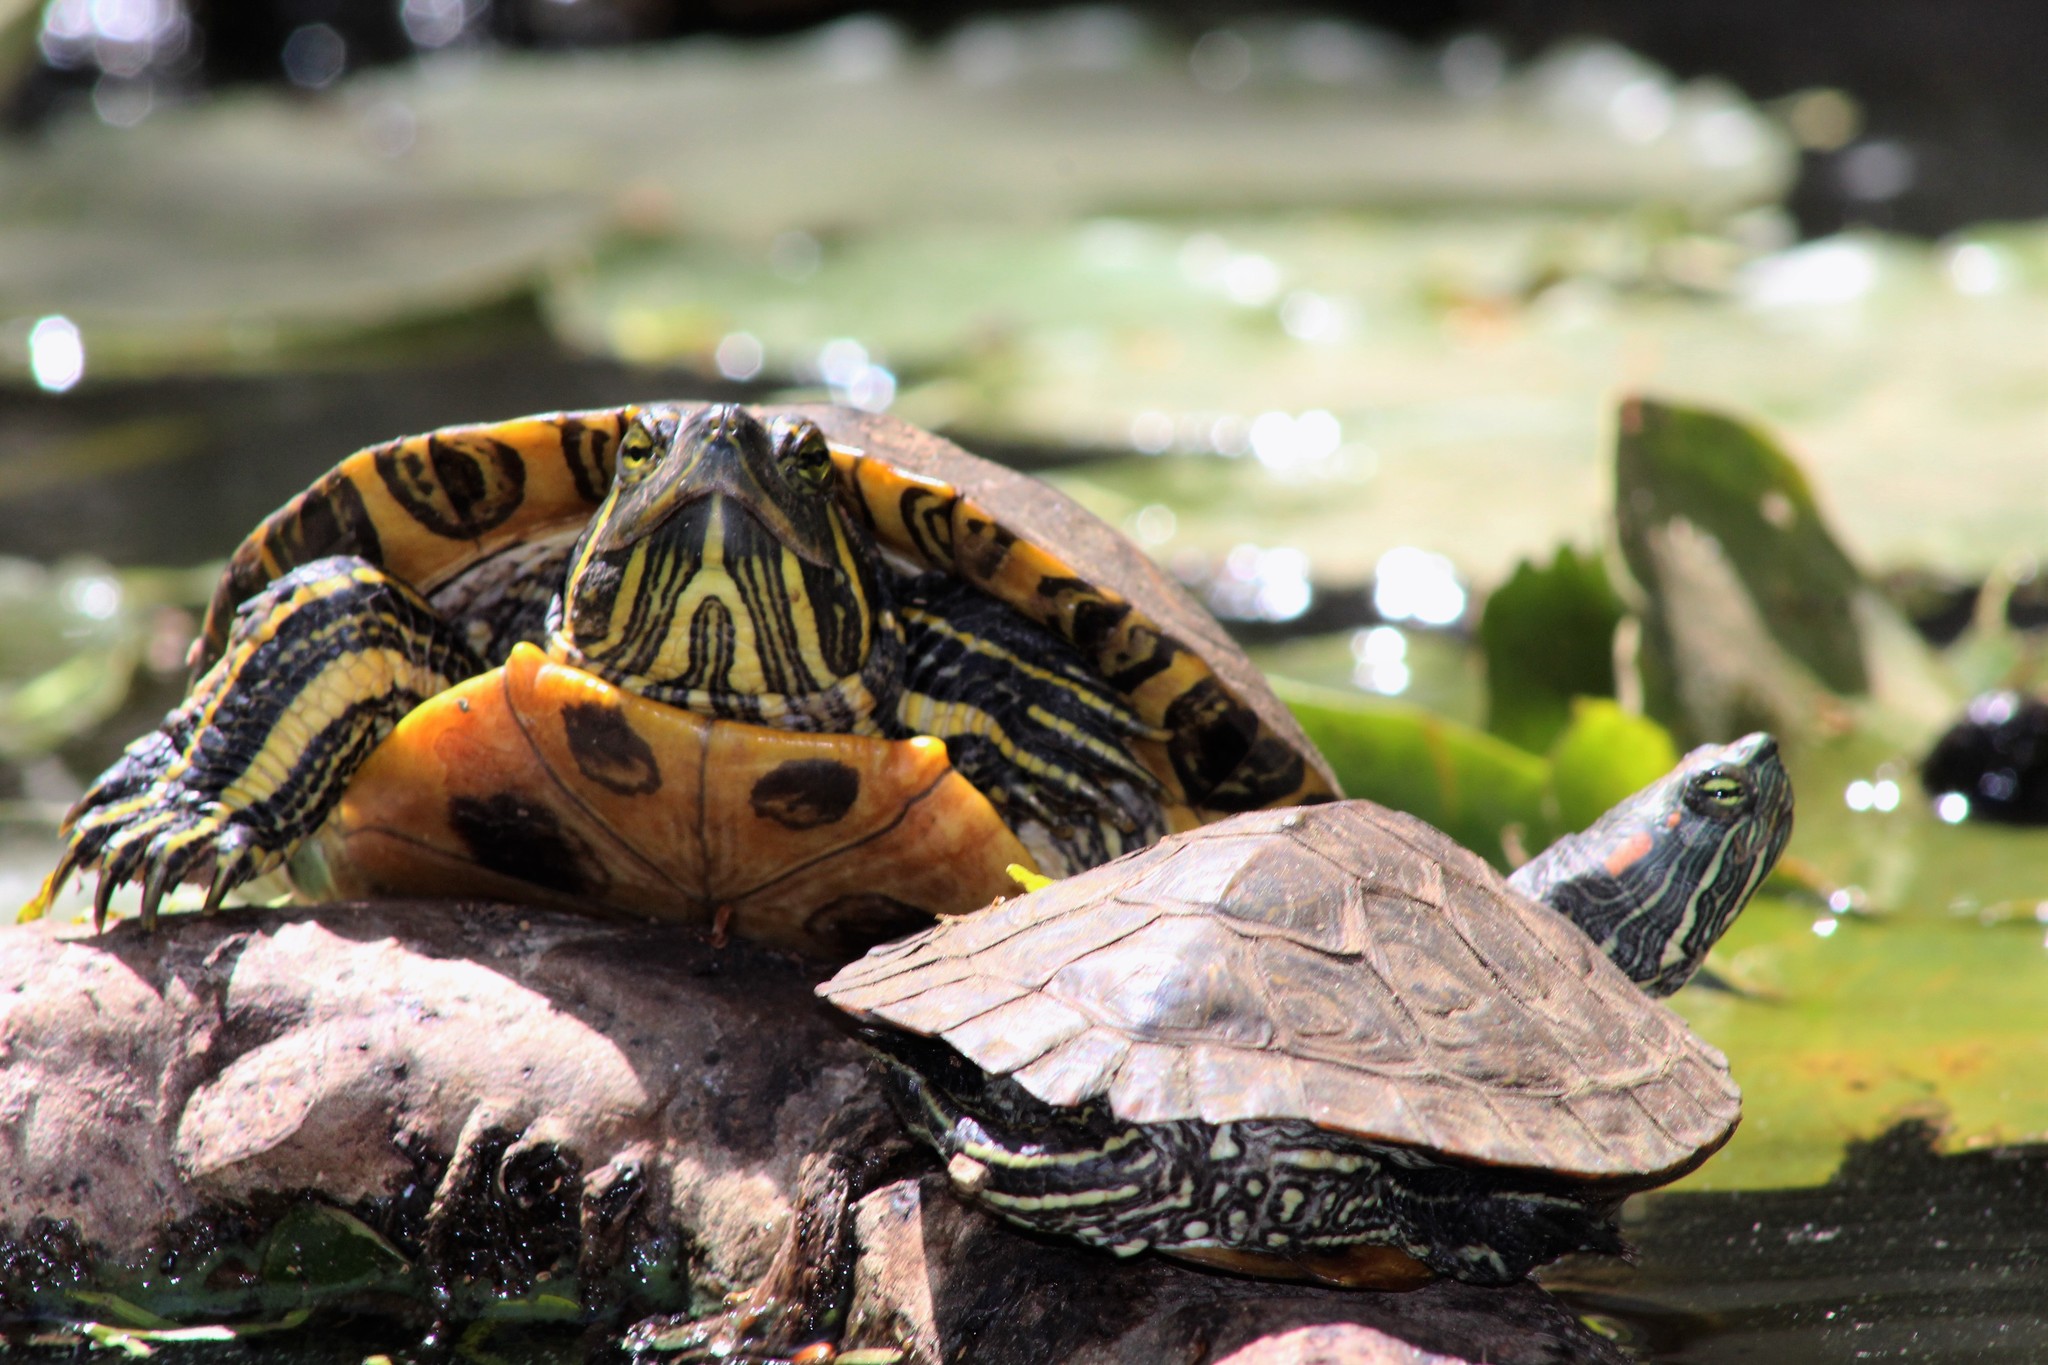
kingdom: Animalia
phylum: Chordata
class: Testudines
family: Emydidae
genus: Trachemys
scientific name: Trachemys scripta
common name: Slider
